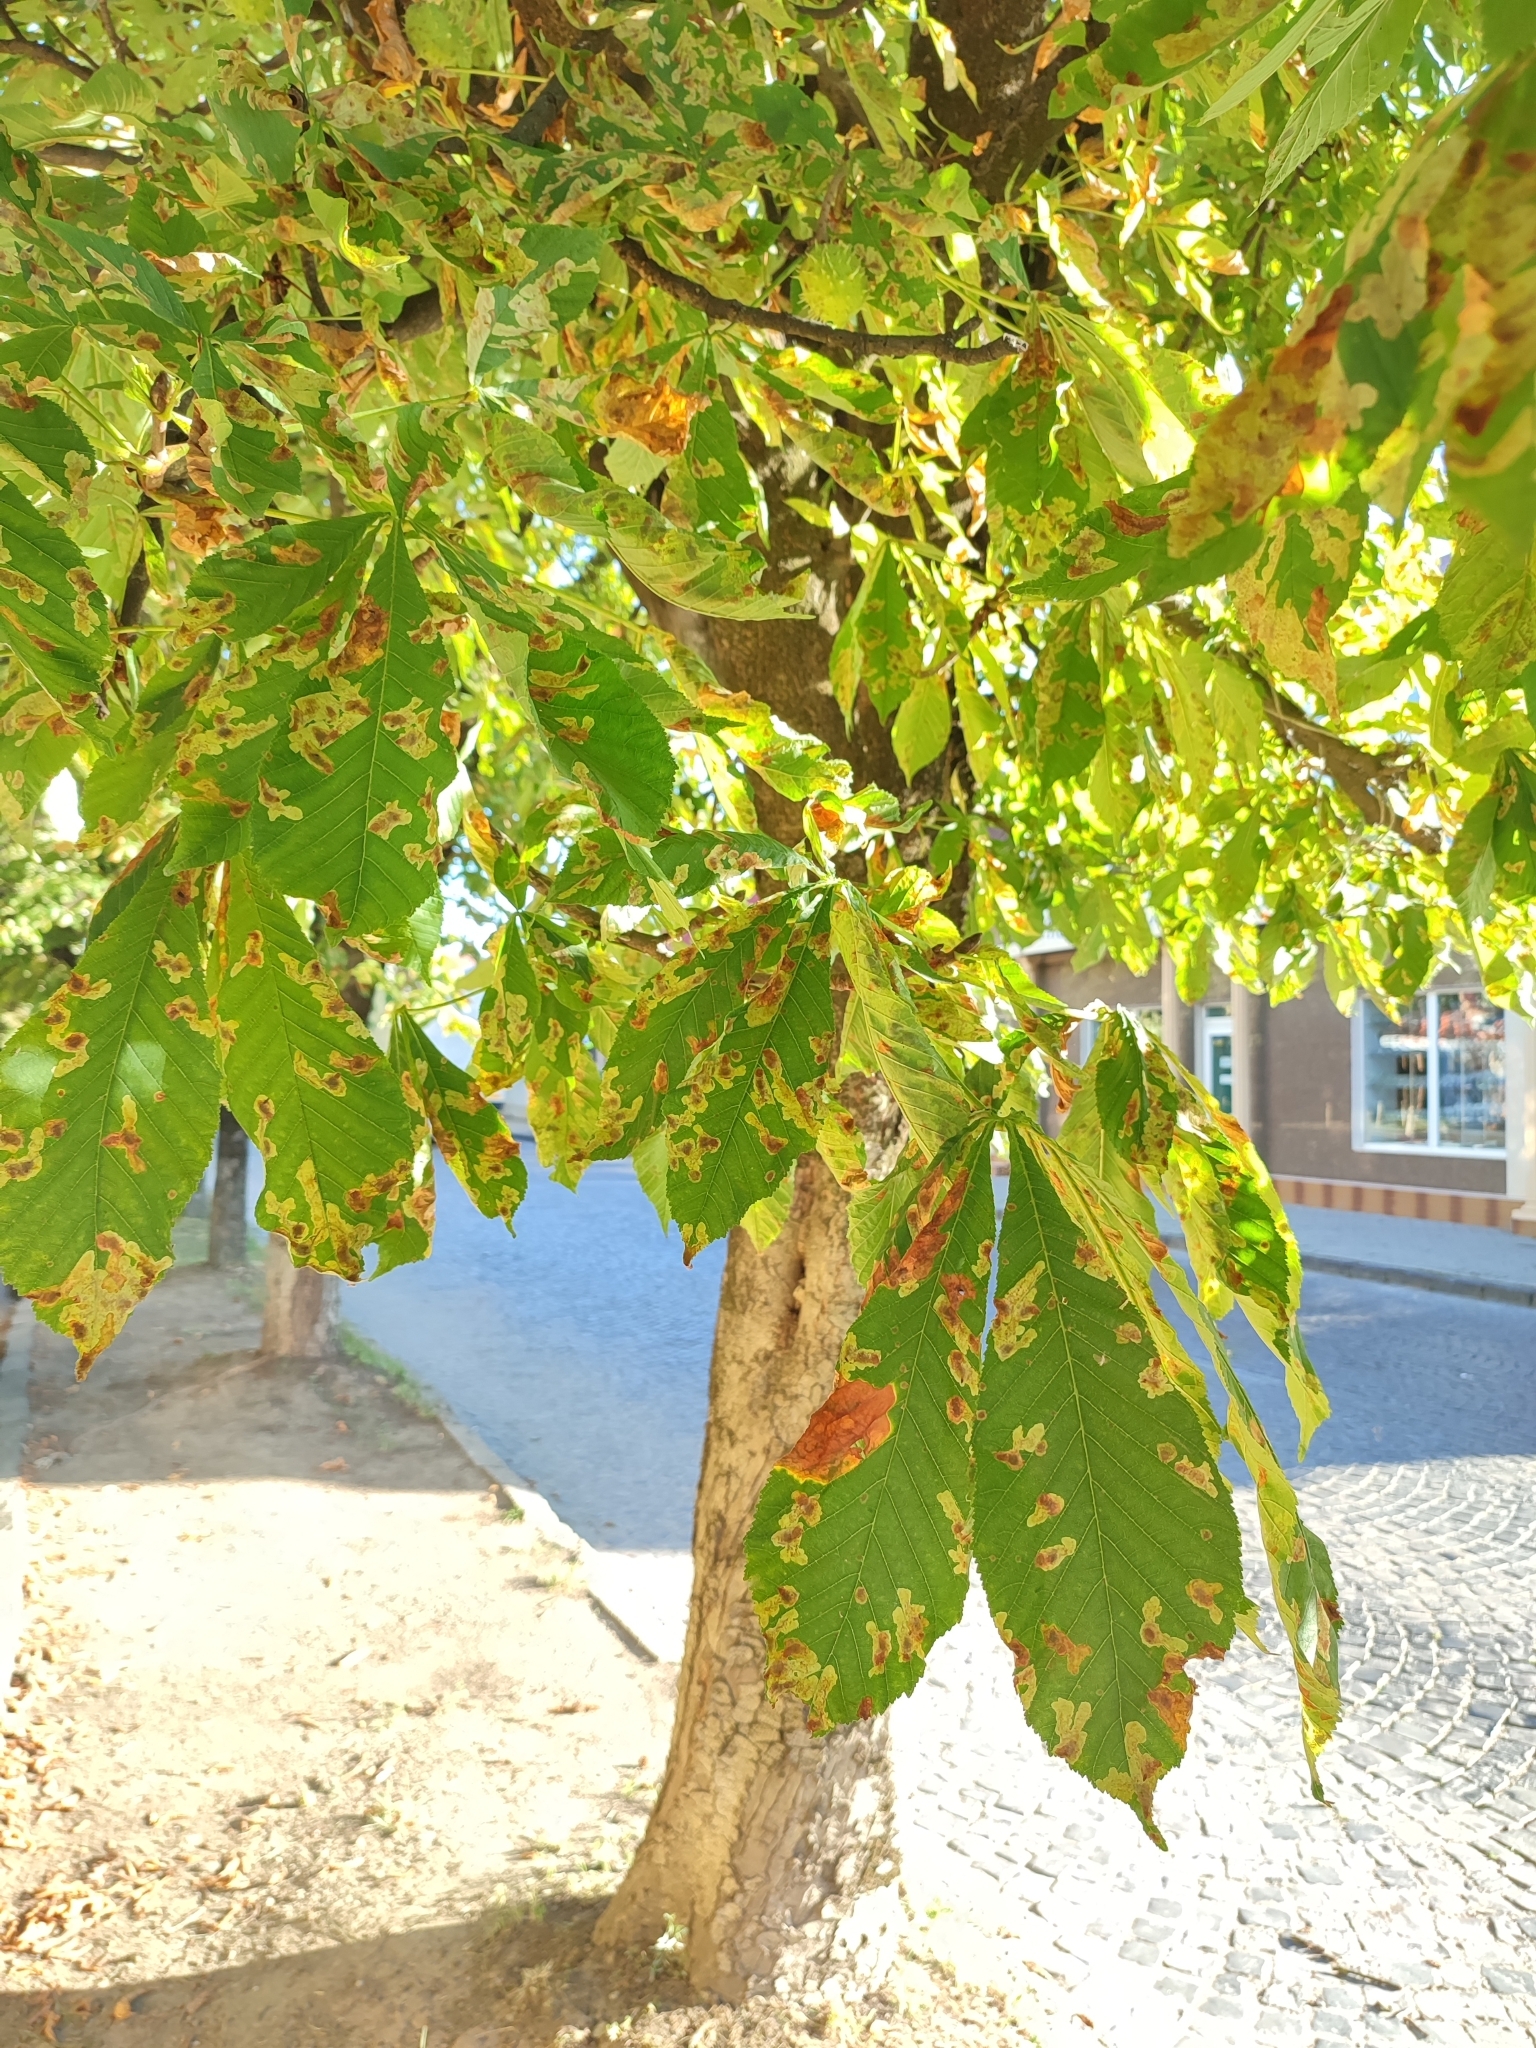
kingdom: Animalia
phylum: Arthropoda
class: Insecta
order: Lepidoptera
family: Gracillariidae
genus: Cameraria
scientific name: Cameraria ohridella
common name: Horse-chestnut leaf-miner
